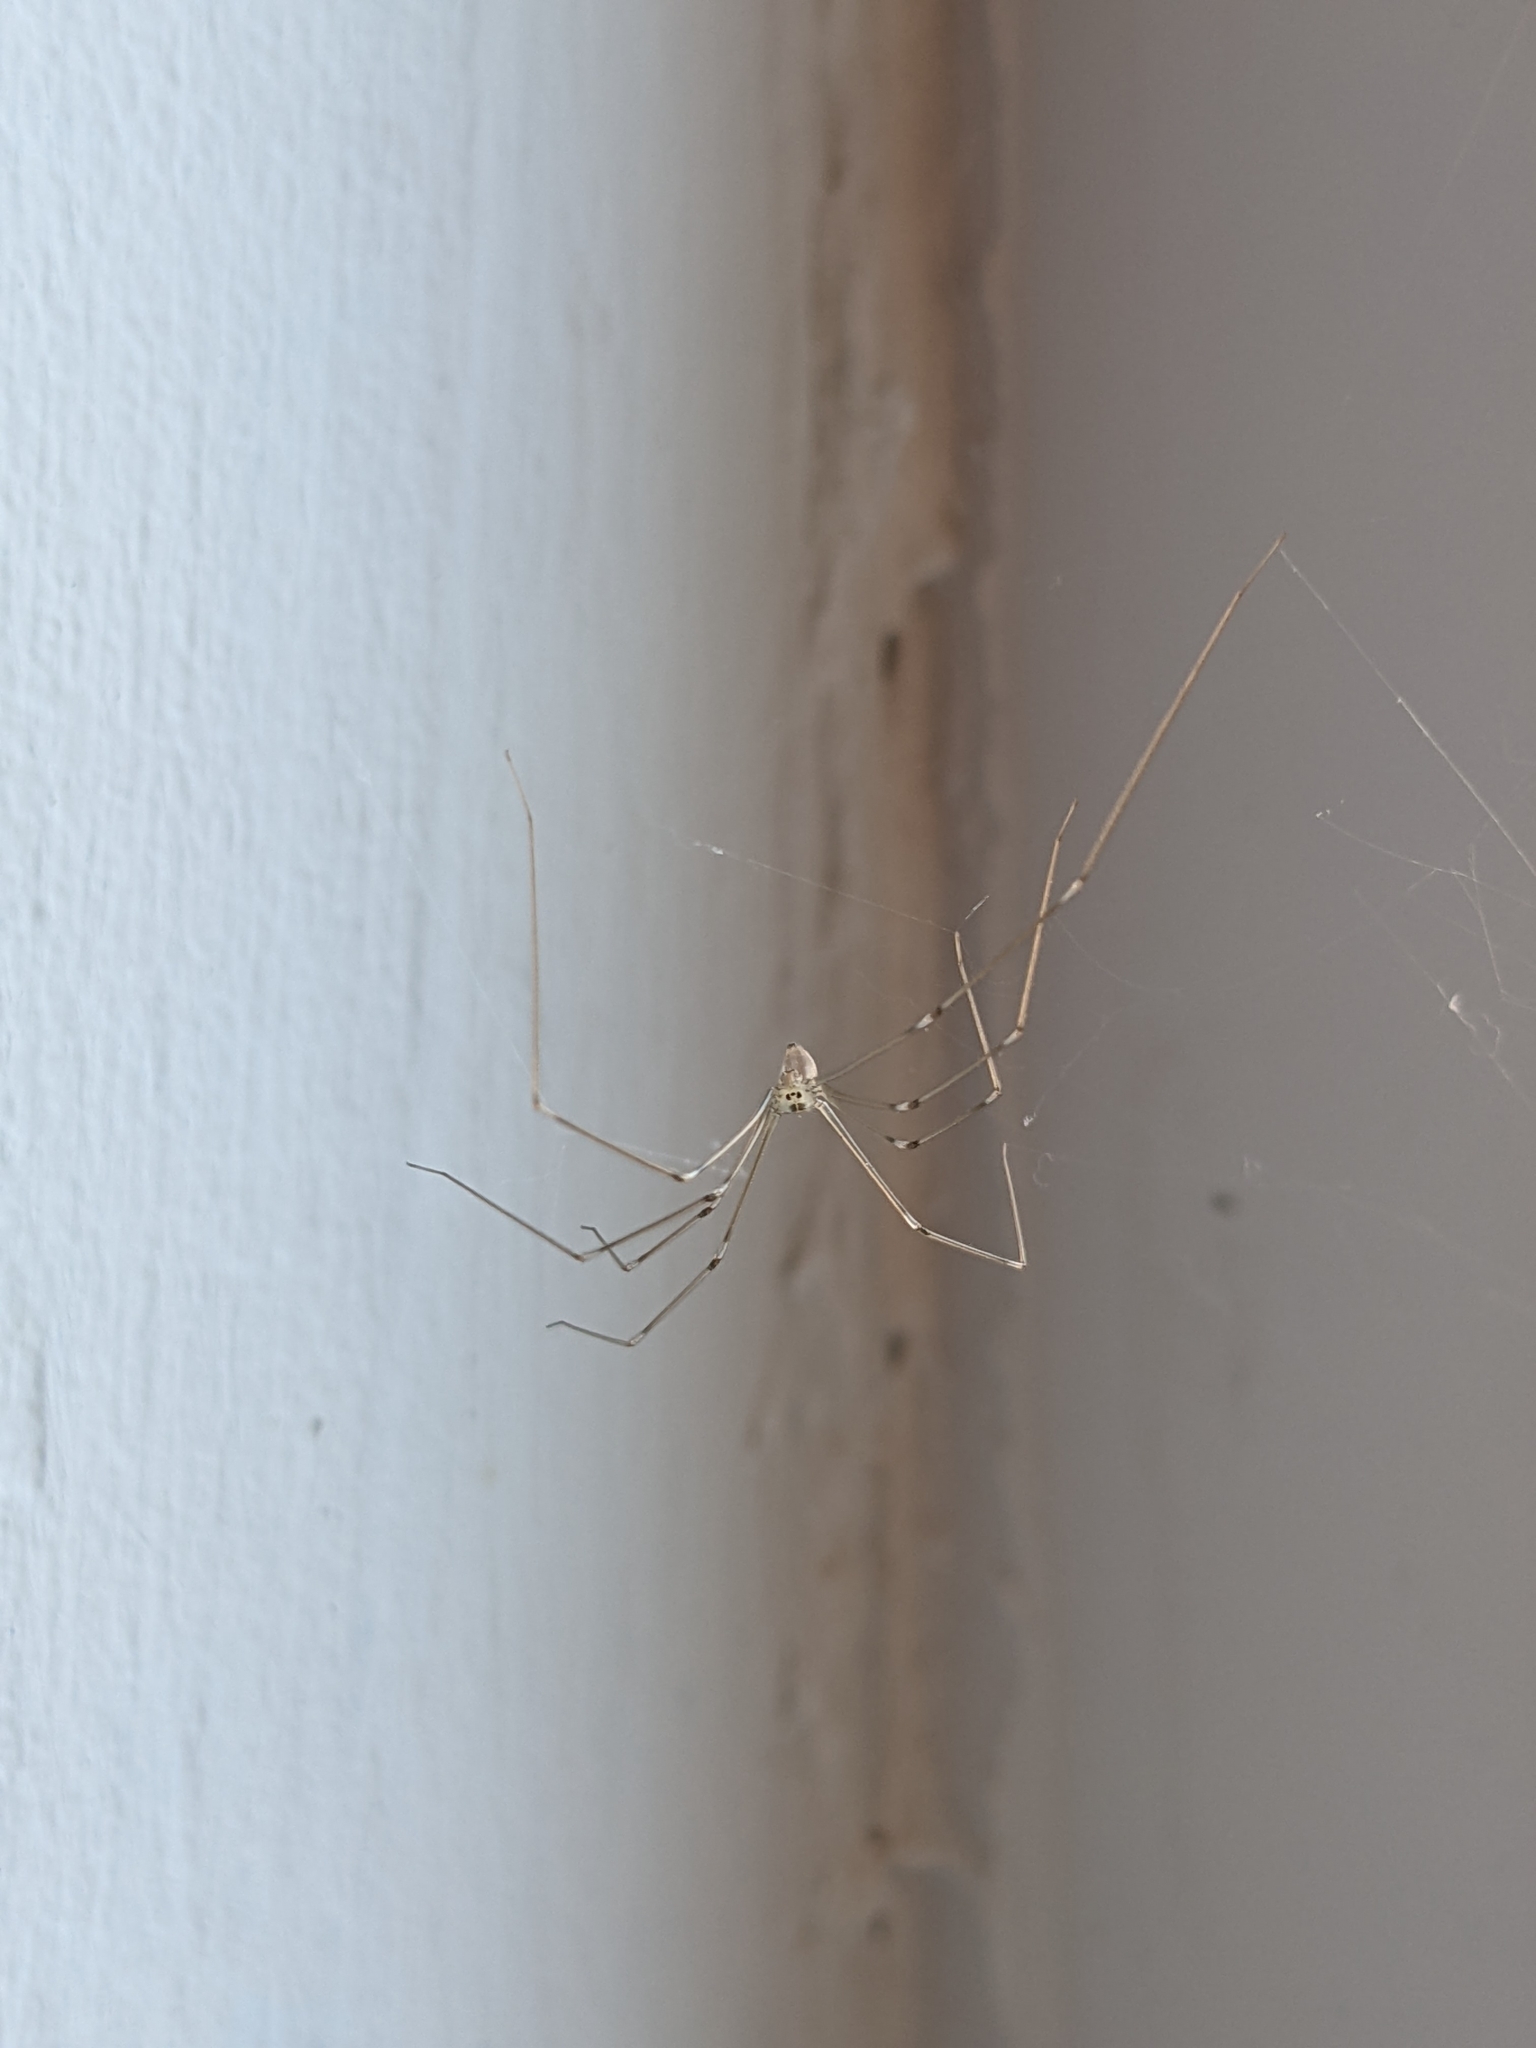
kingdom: Animalia
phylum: Arthropoda
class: Arachnida
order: Araneae
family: Pholcidae
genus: Pholcus
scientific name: Pholcus phalangioides
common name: Longbodied cellar spider
